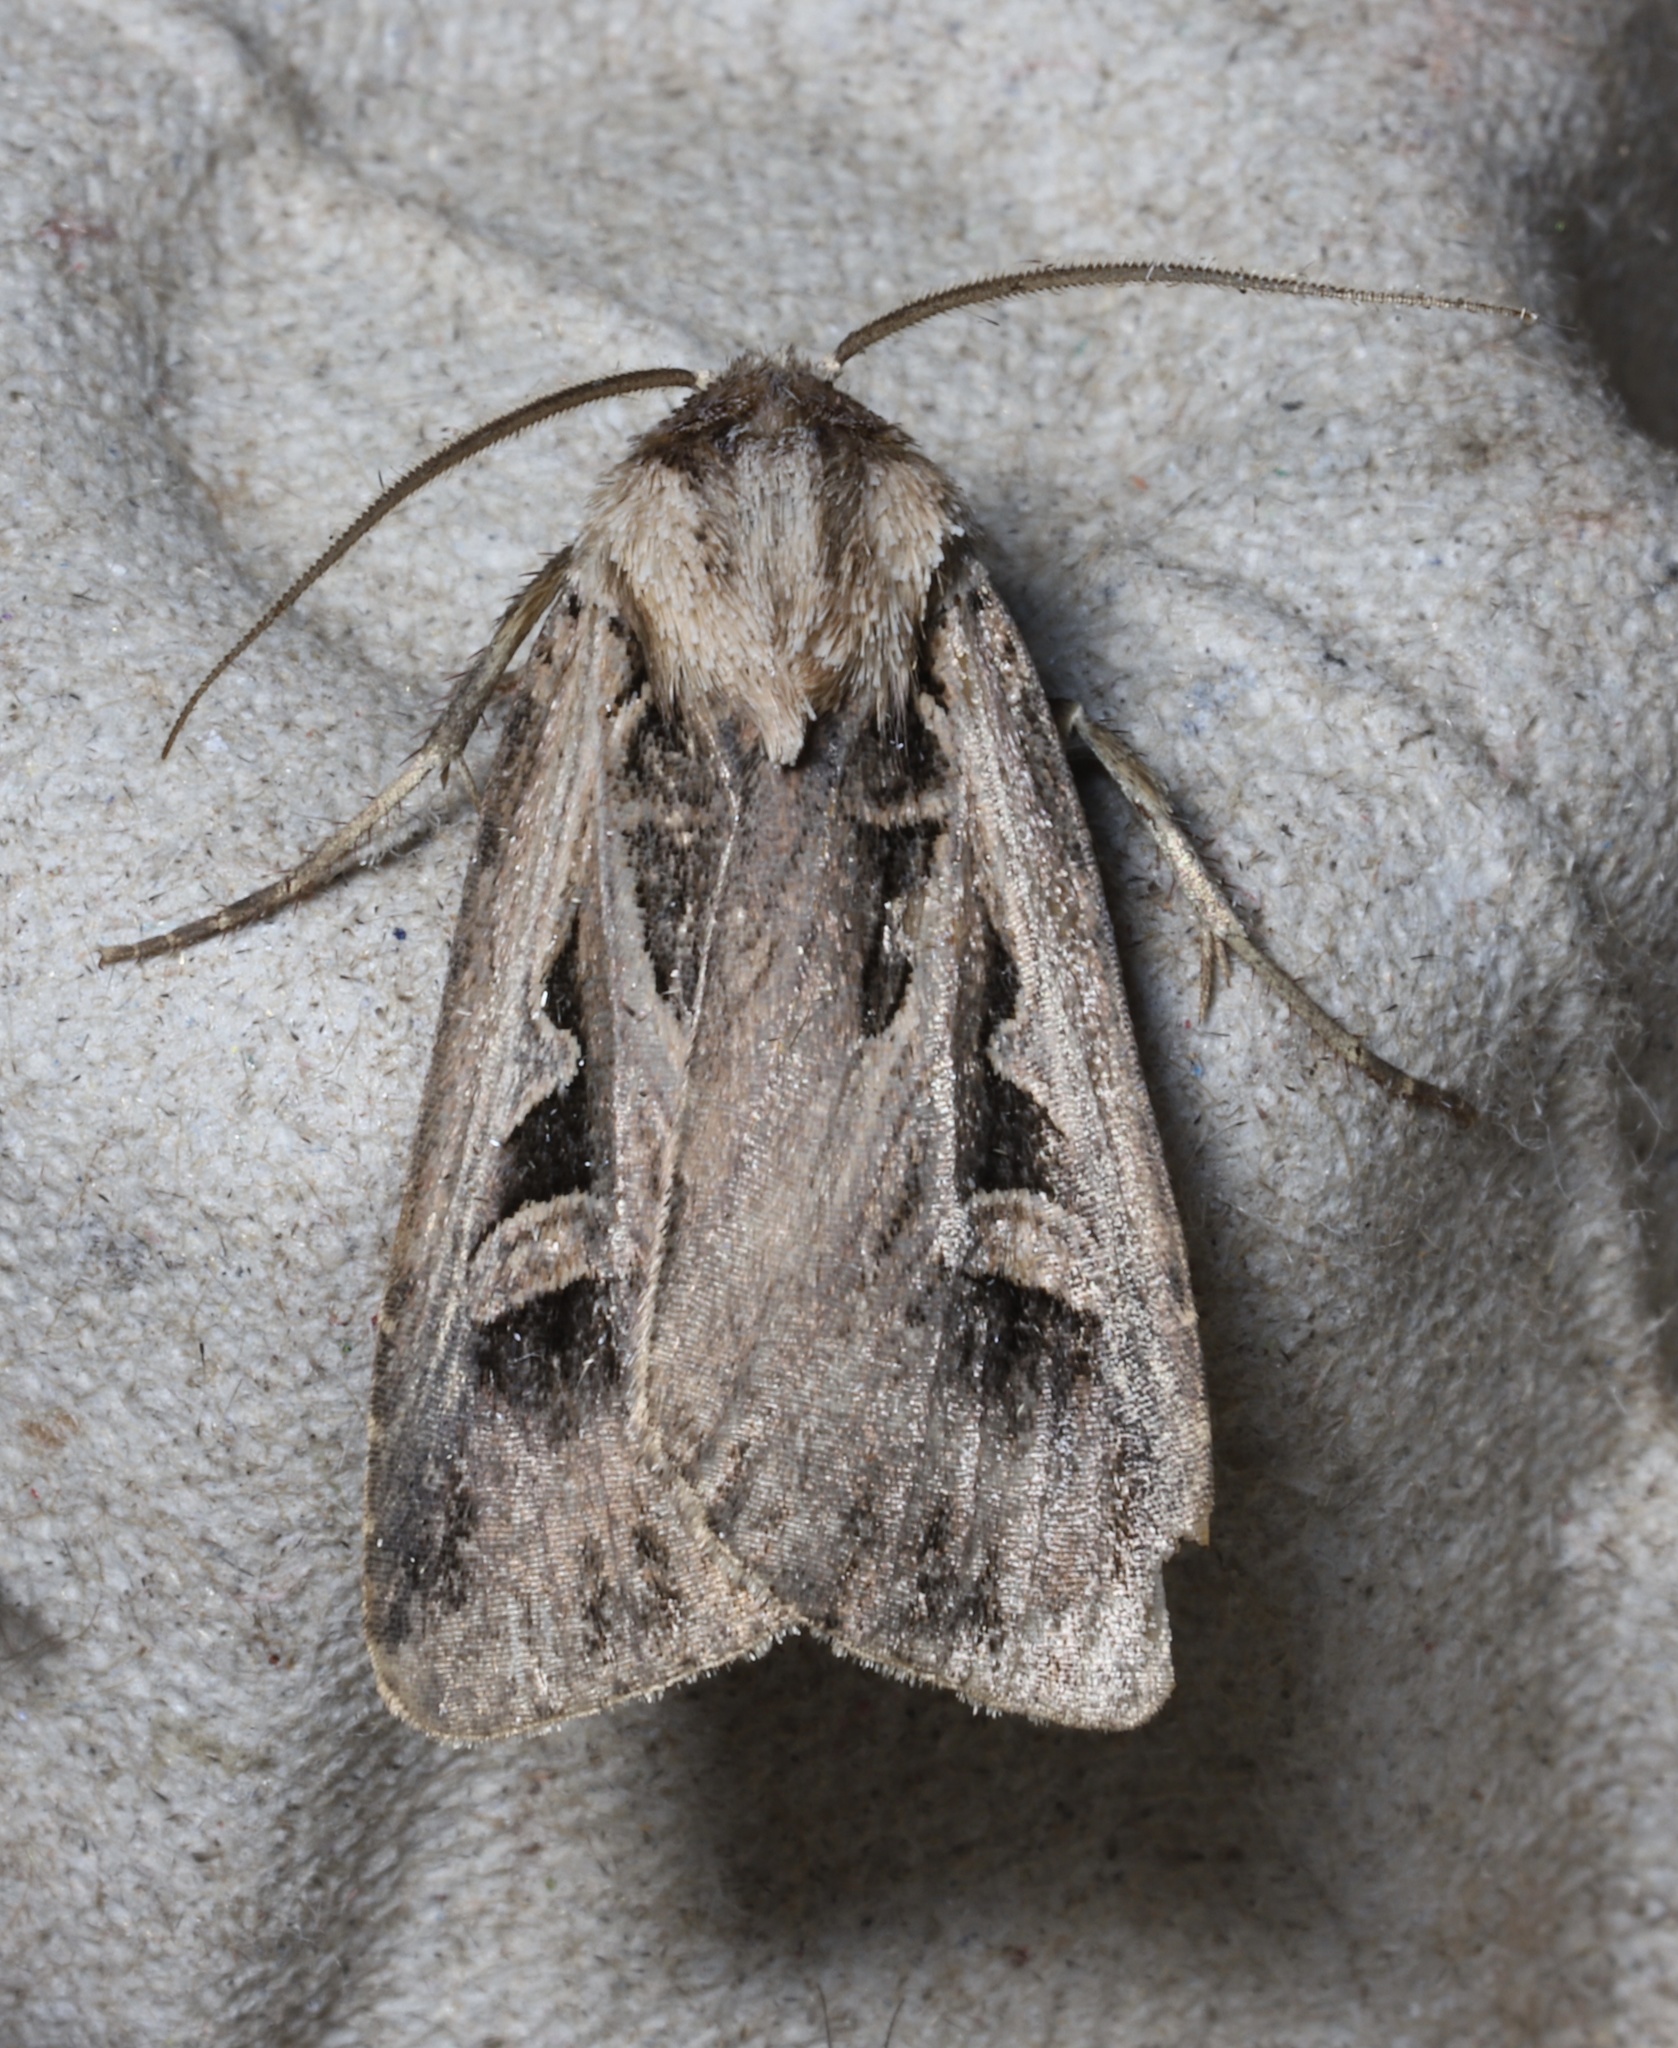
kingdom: Animalia
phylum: Arthropoda
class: Insecta
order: Lepidoptera
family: Noctuidae
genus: Feltia
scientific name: Feltia subgothica
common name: Gothic dart
